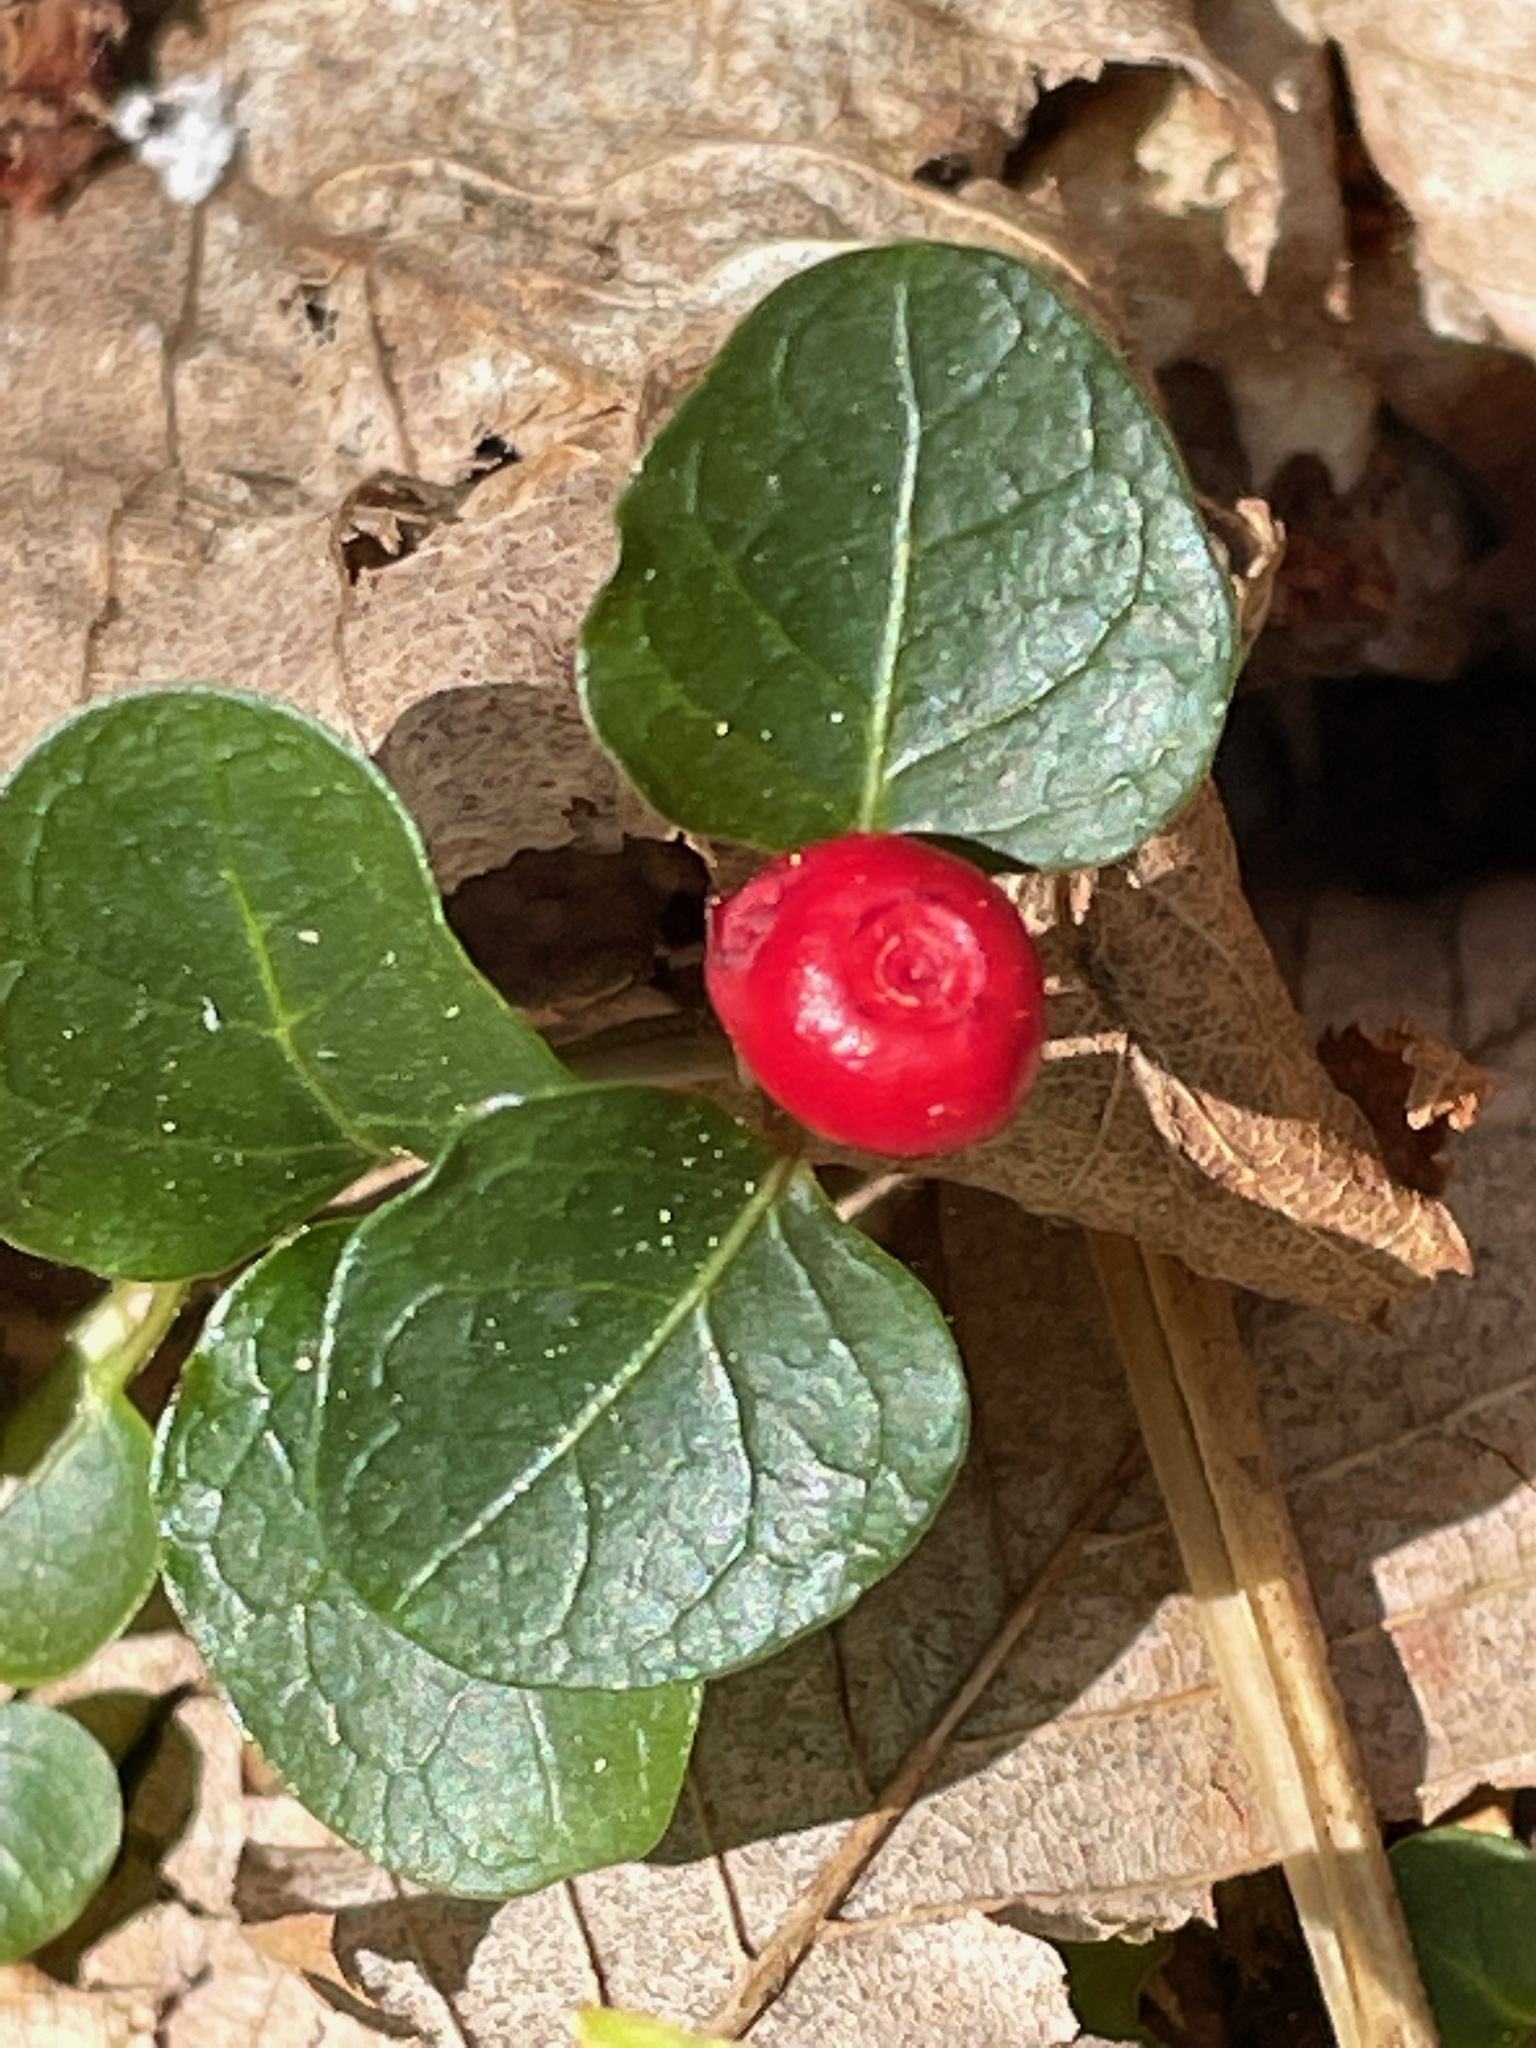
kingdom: Plantae
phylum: Tracheophyta
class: Magnoliopsida
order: Gentianales
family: Rubiaceae
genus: Mitchella
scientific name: Mitchella repens
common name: Partridge-berry
